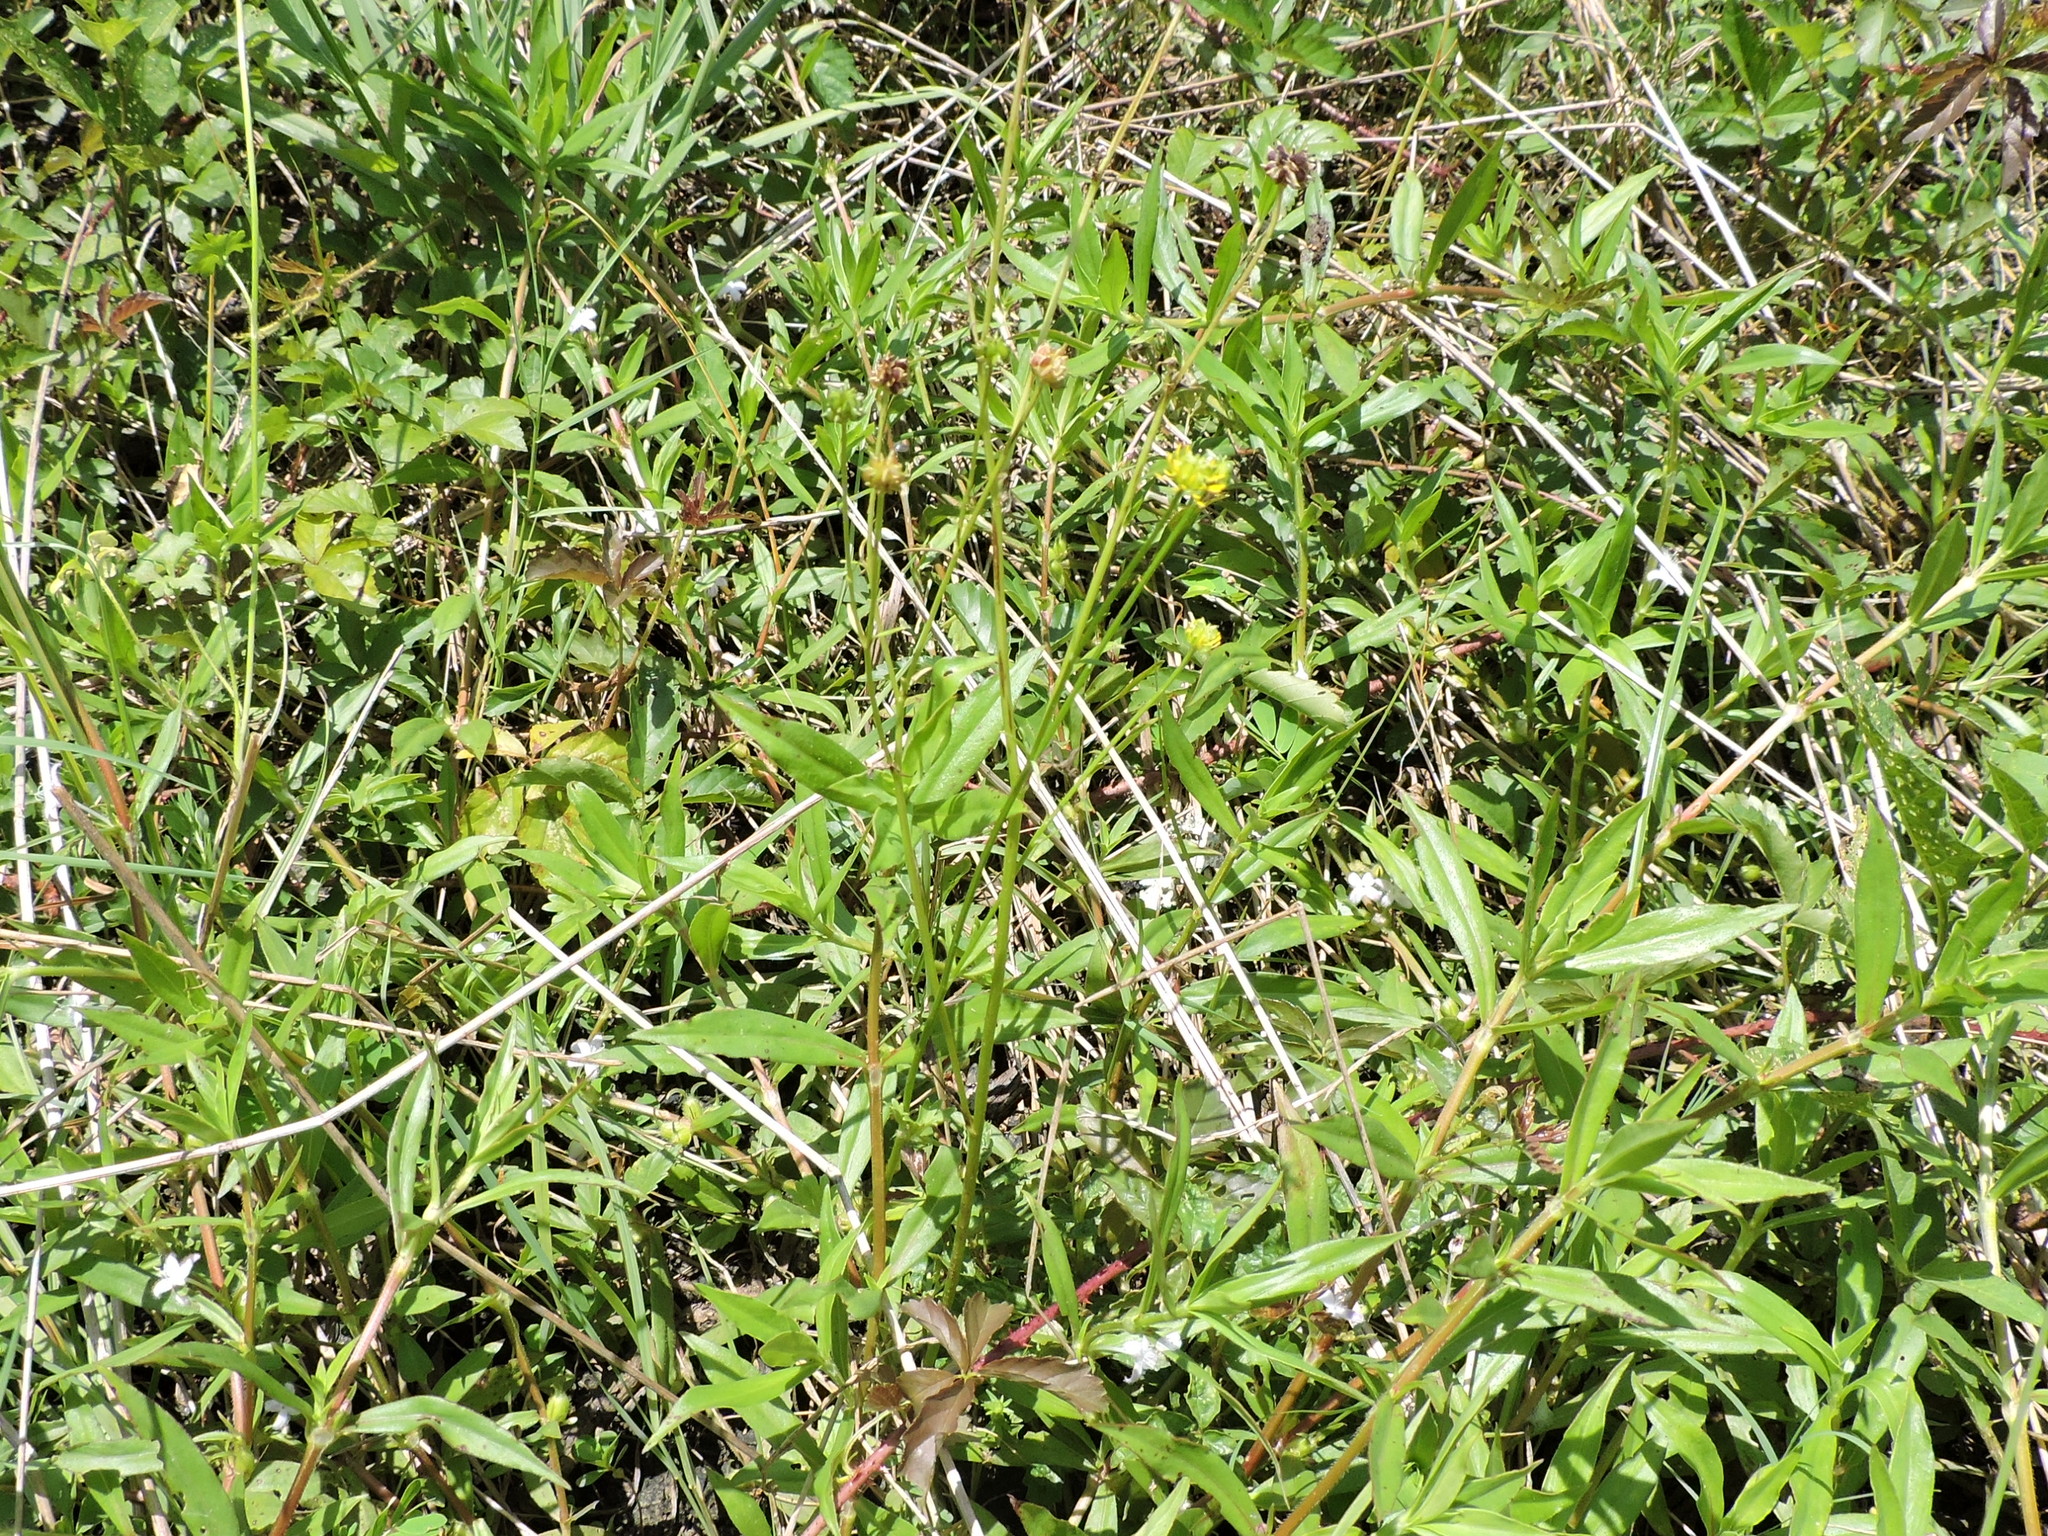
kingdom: Plantae
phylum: Tracheophyta
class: Magnoliopsida
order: Ranunculales
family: Ranunculaceae
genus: Ranunculus
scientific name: Ranunculus sardous
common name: Hairy buttercup
